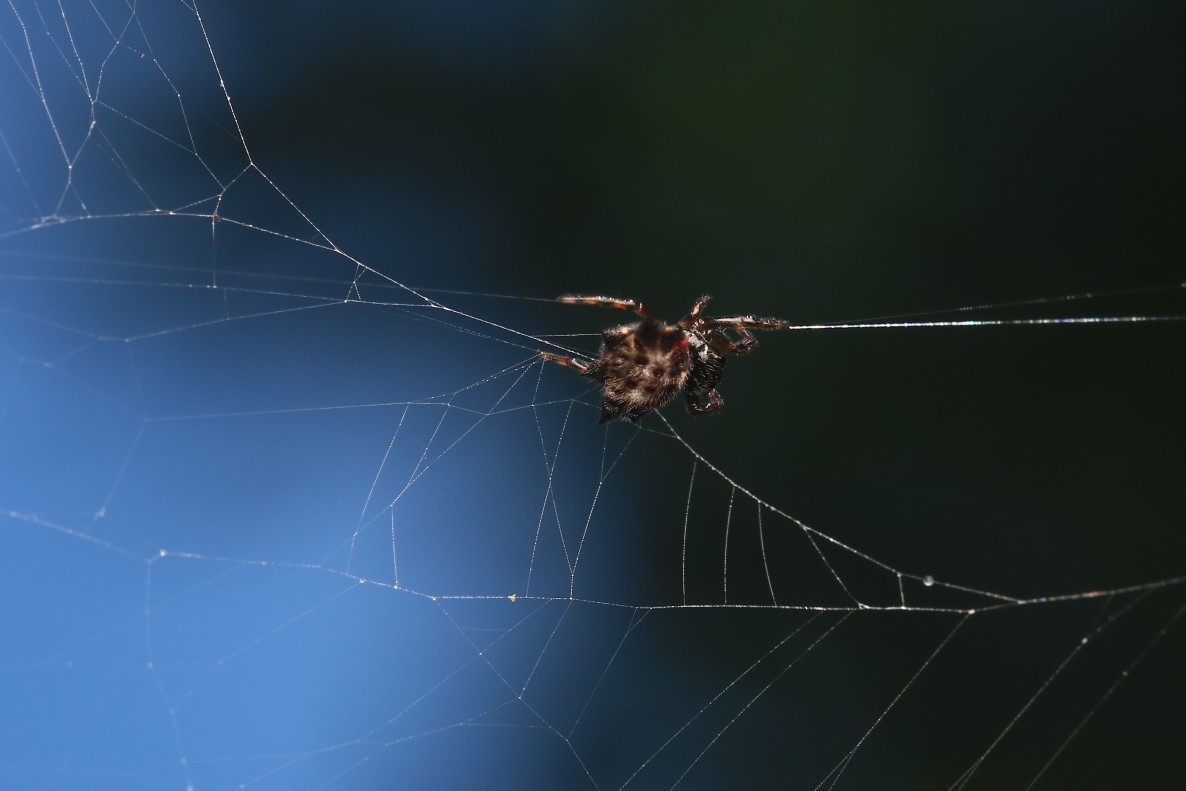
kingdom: Animalia
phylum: Arthropoda
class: Arachnida
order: Araneae
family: Araneidae
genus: Gasteracantha
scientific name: Gasteracantha cancriformis
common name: Orb weavers
